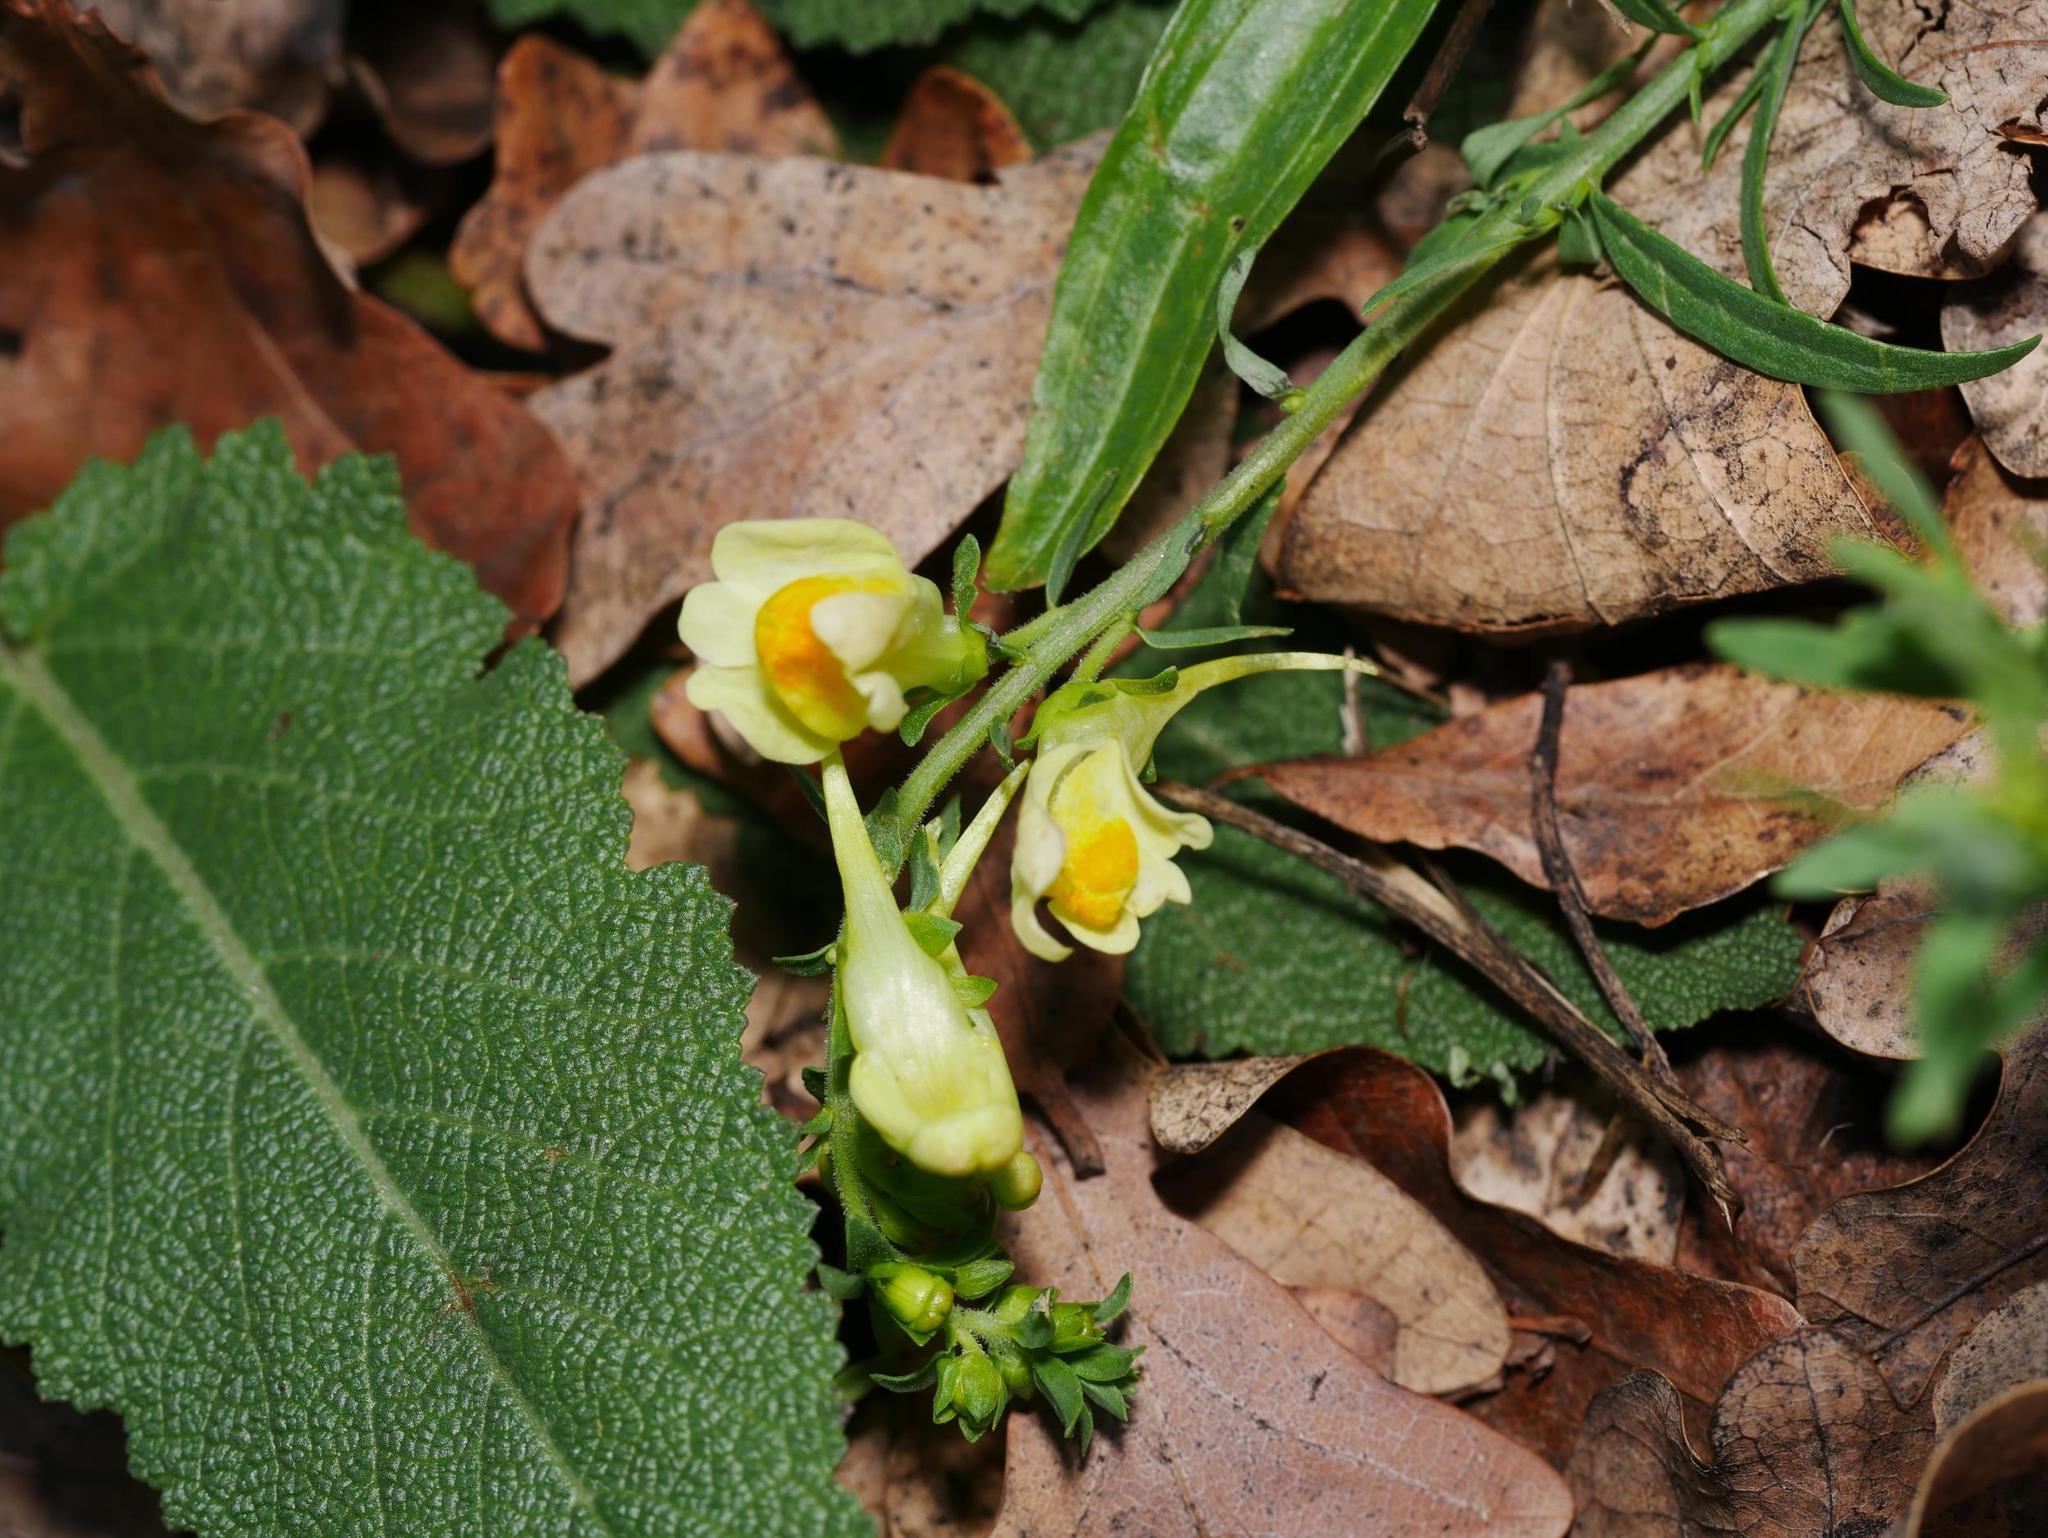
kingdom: Plantae
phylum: Tracheophyta
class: Magnoliopsida
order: Lamiales
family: Plantaginaceae
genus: Linaria
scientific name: Linaria vulgaris
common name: Butter and eggs
